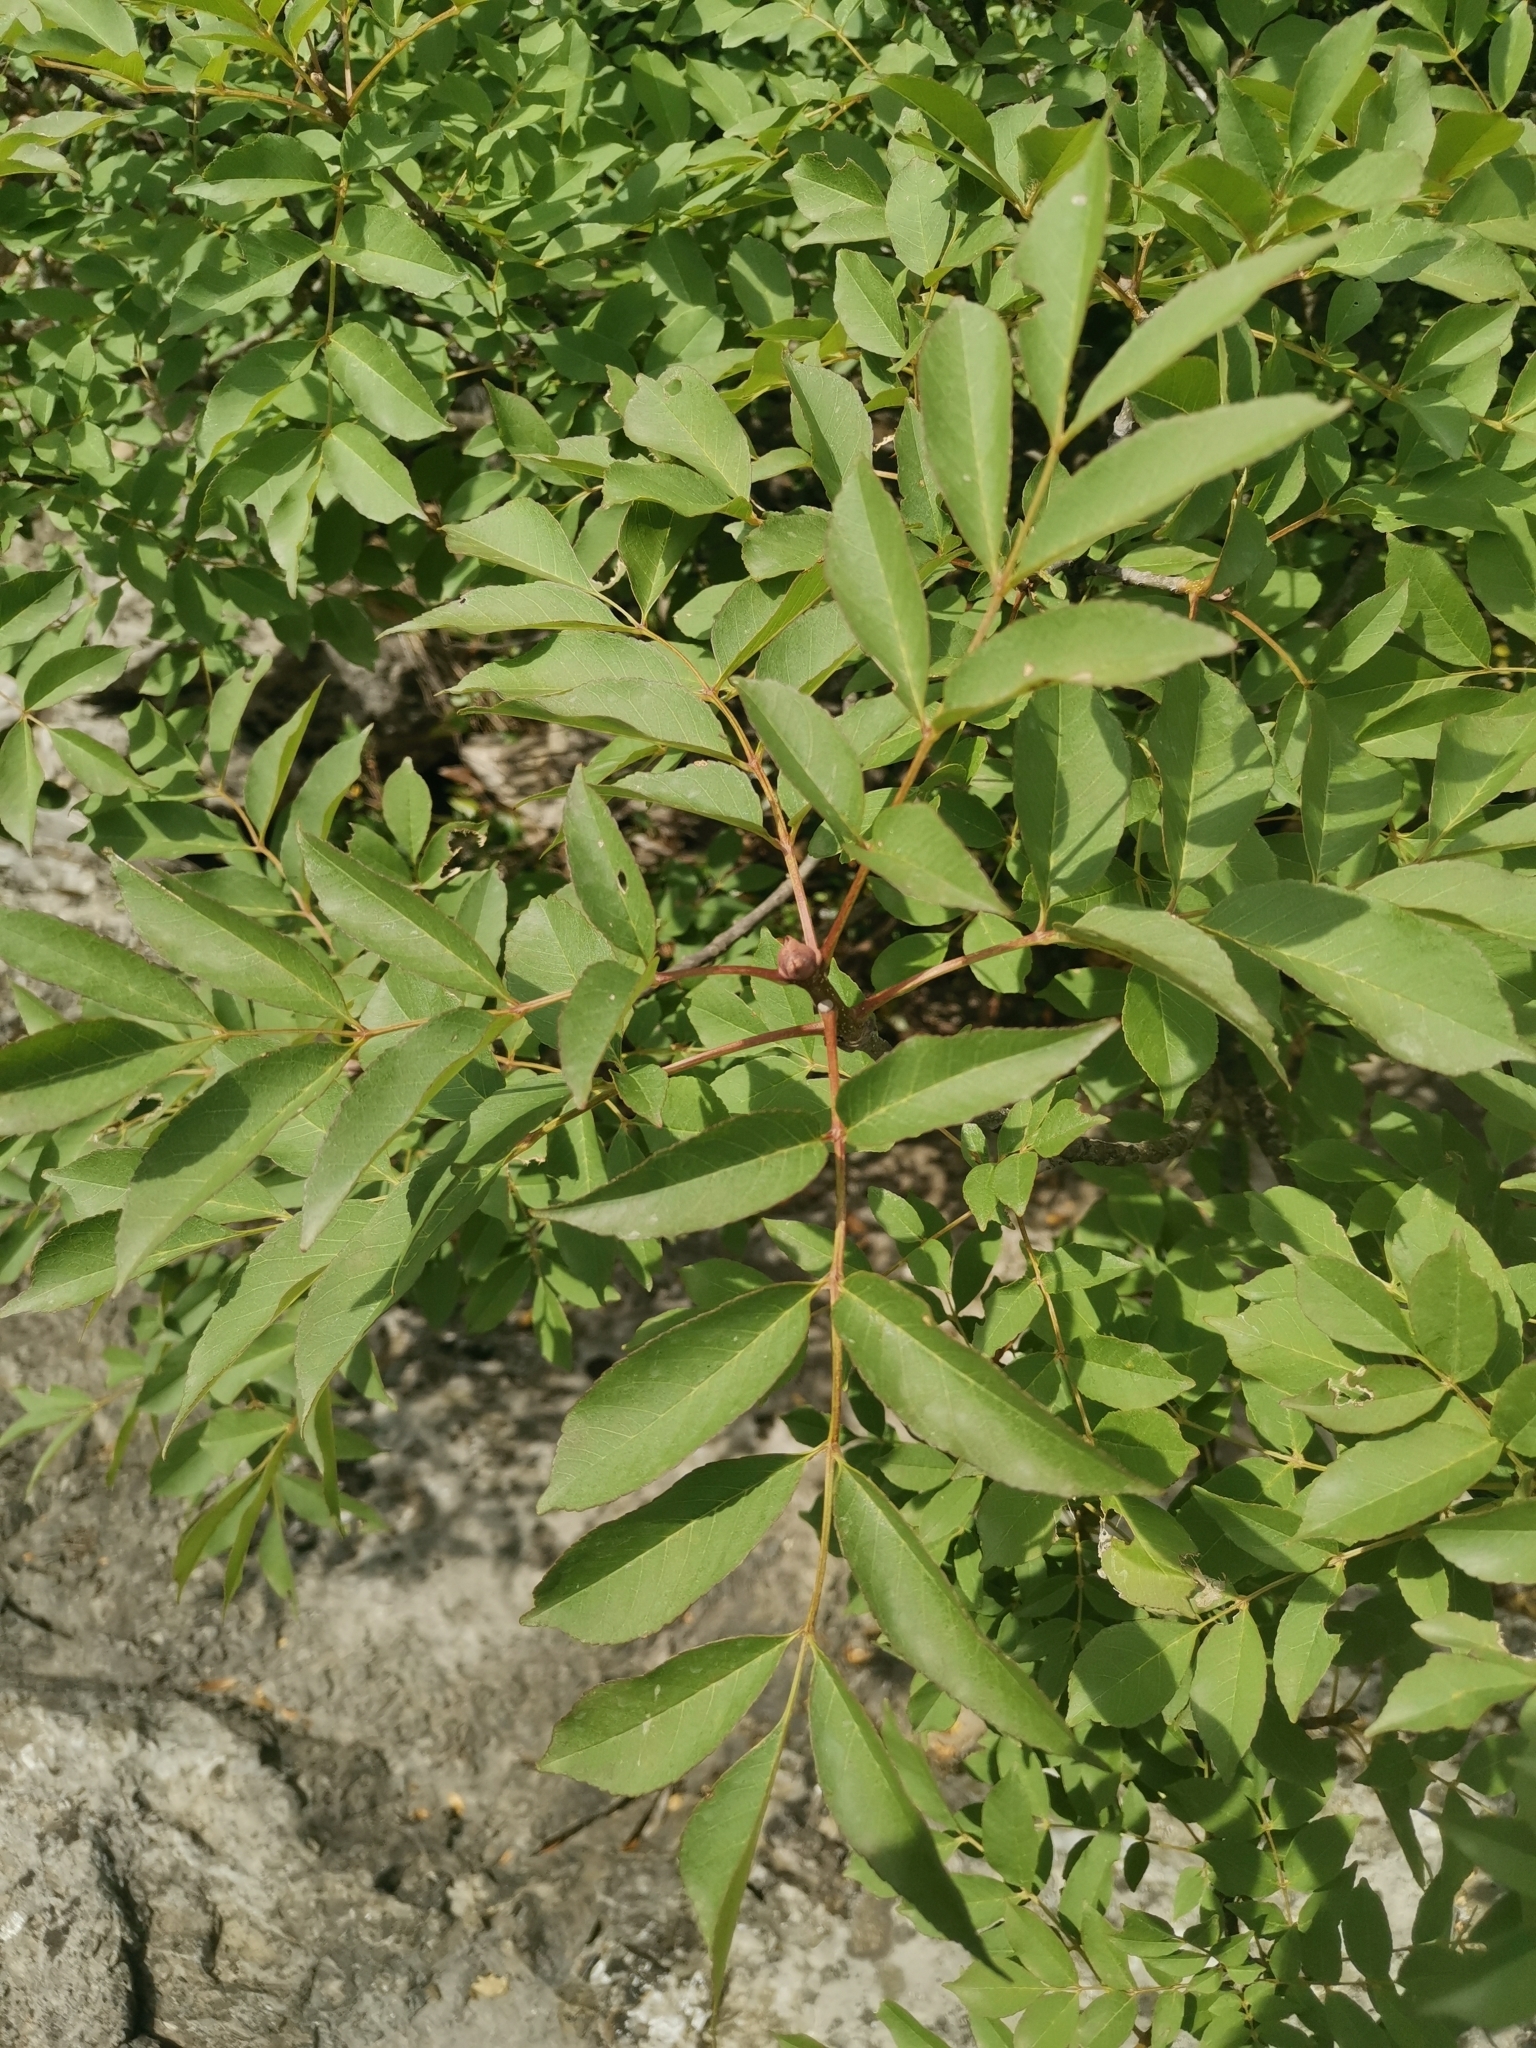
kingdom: Plantae
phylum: Tracheophyta
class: Magnoliopsida
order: Lamiales
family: Oleaceae
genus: Fraxinus
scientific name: Fraxinus ornus
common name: Manna ash
